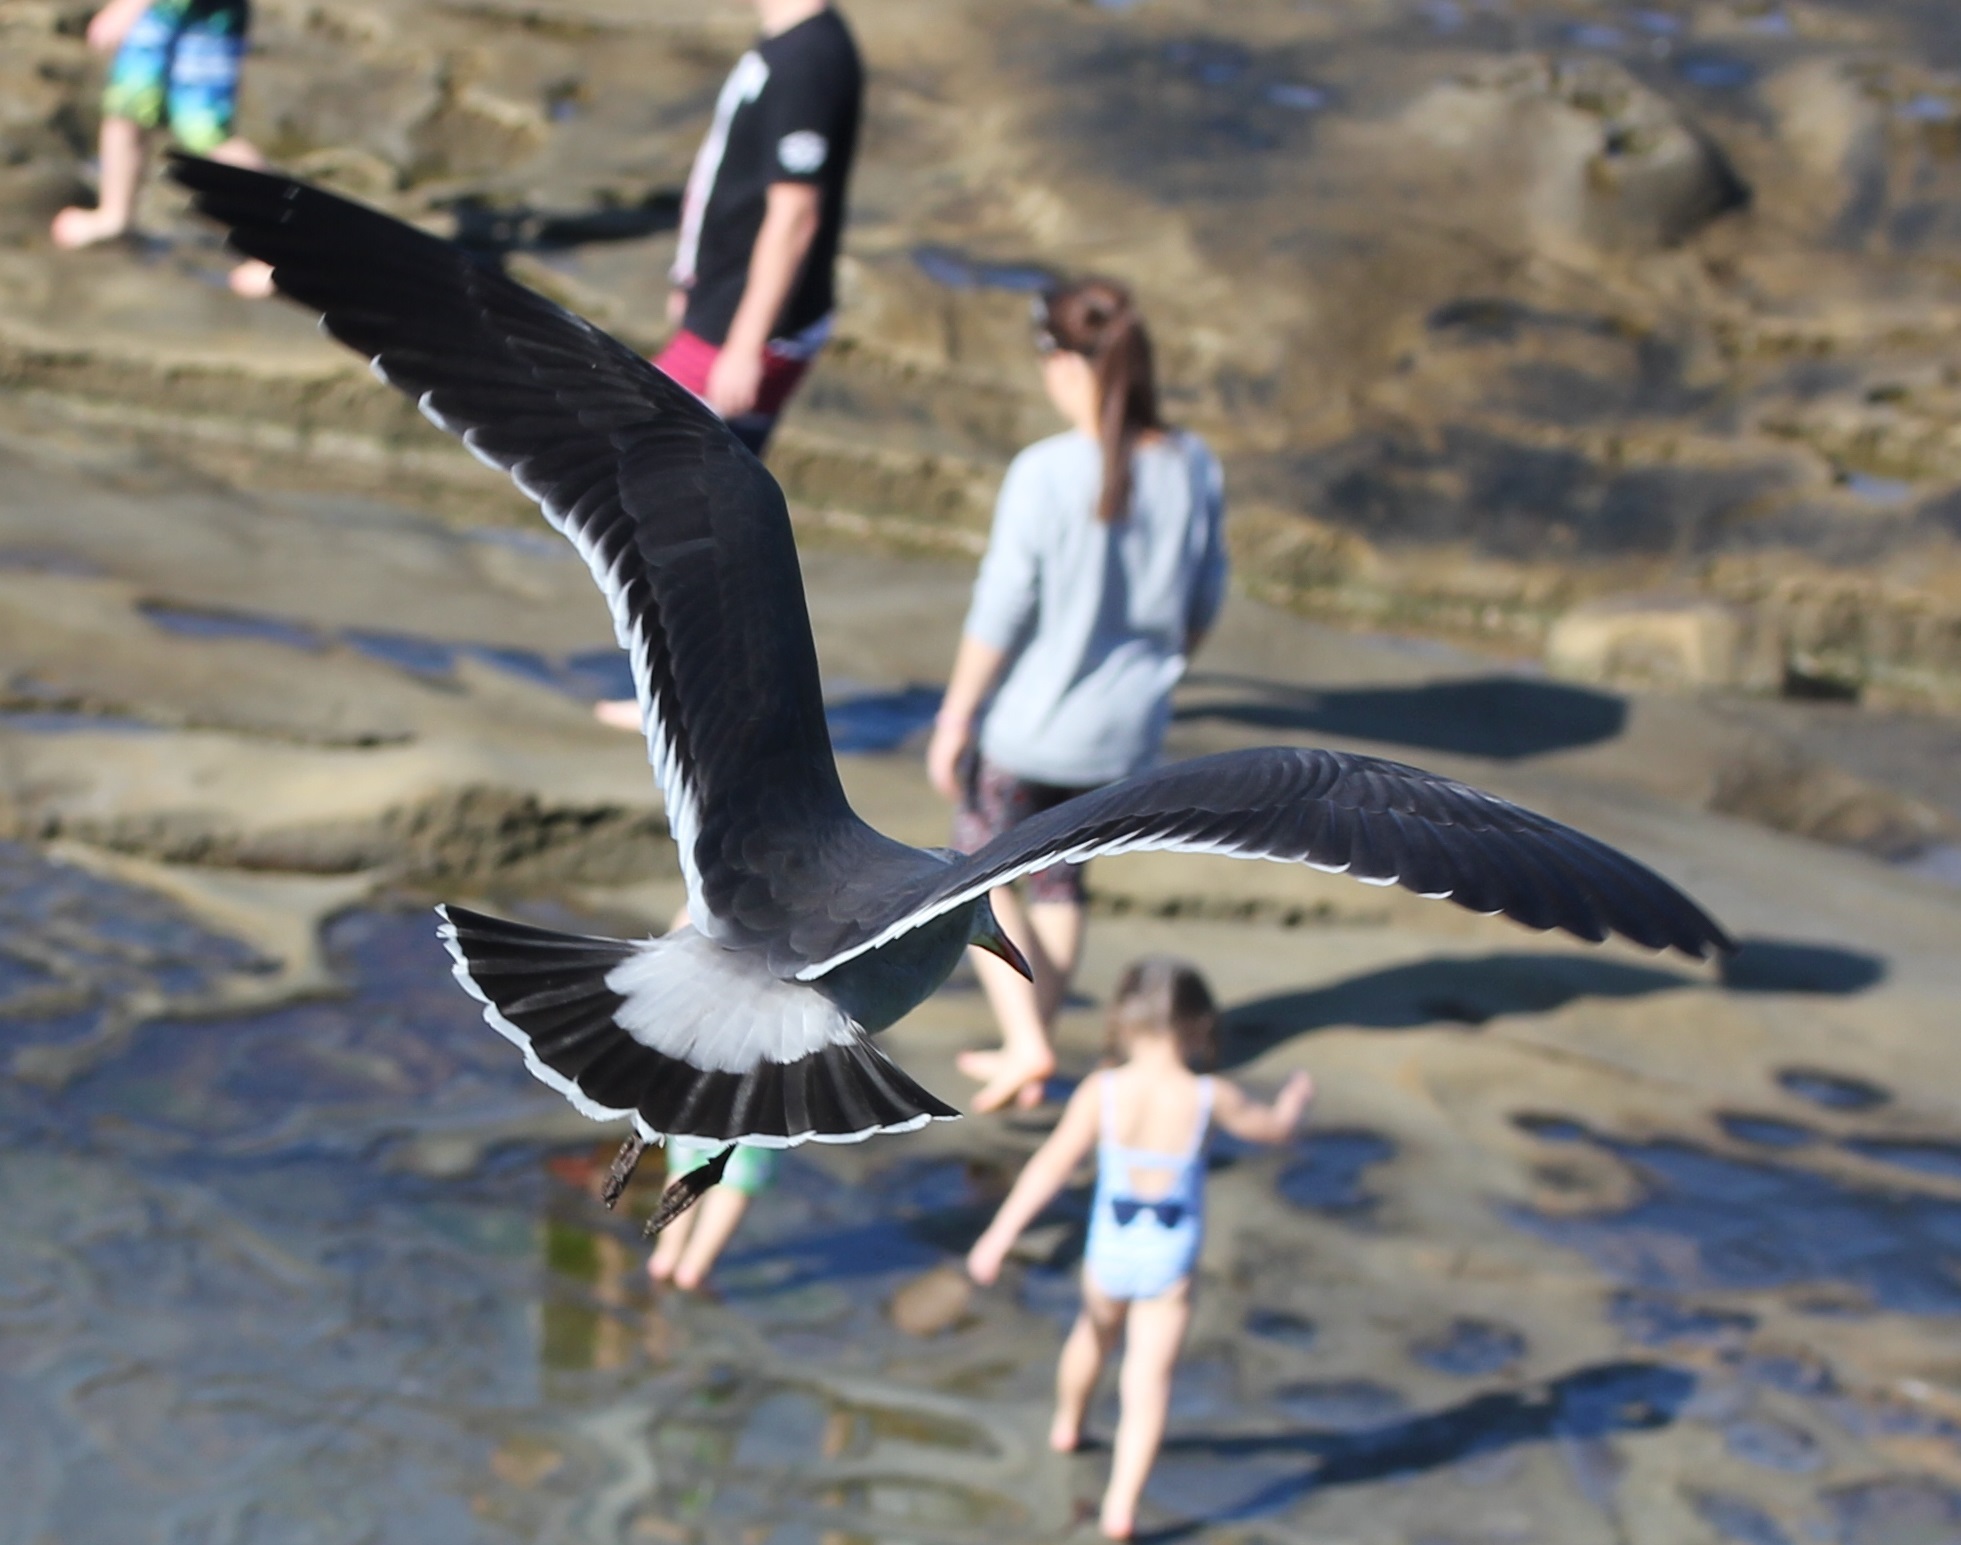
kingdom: Animalia
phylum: Chordata
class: Aves
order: Charadriiformes
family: Laridae
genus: Larus
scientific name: Larus heermanni
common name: Heermann's gull
